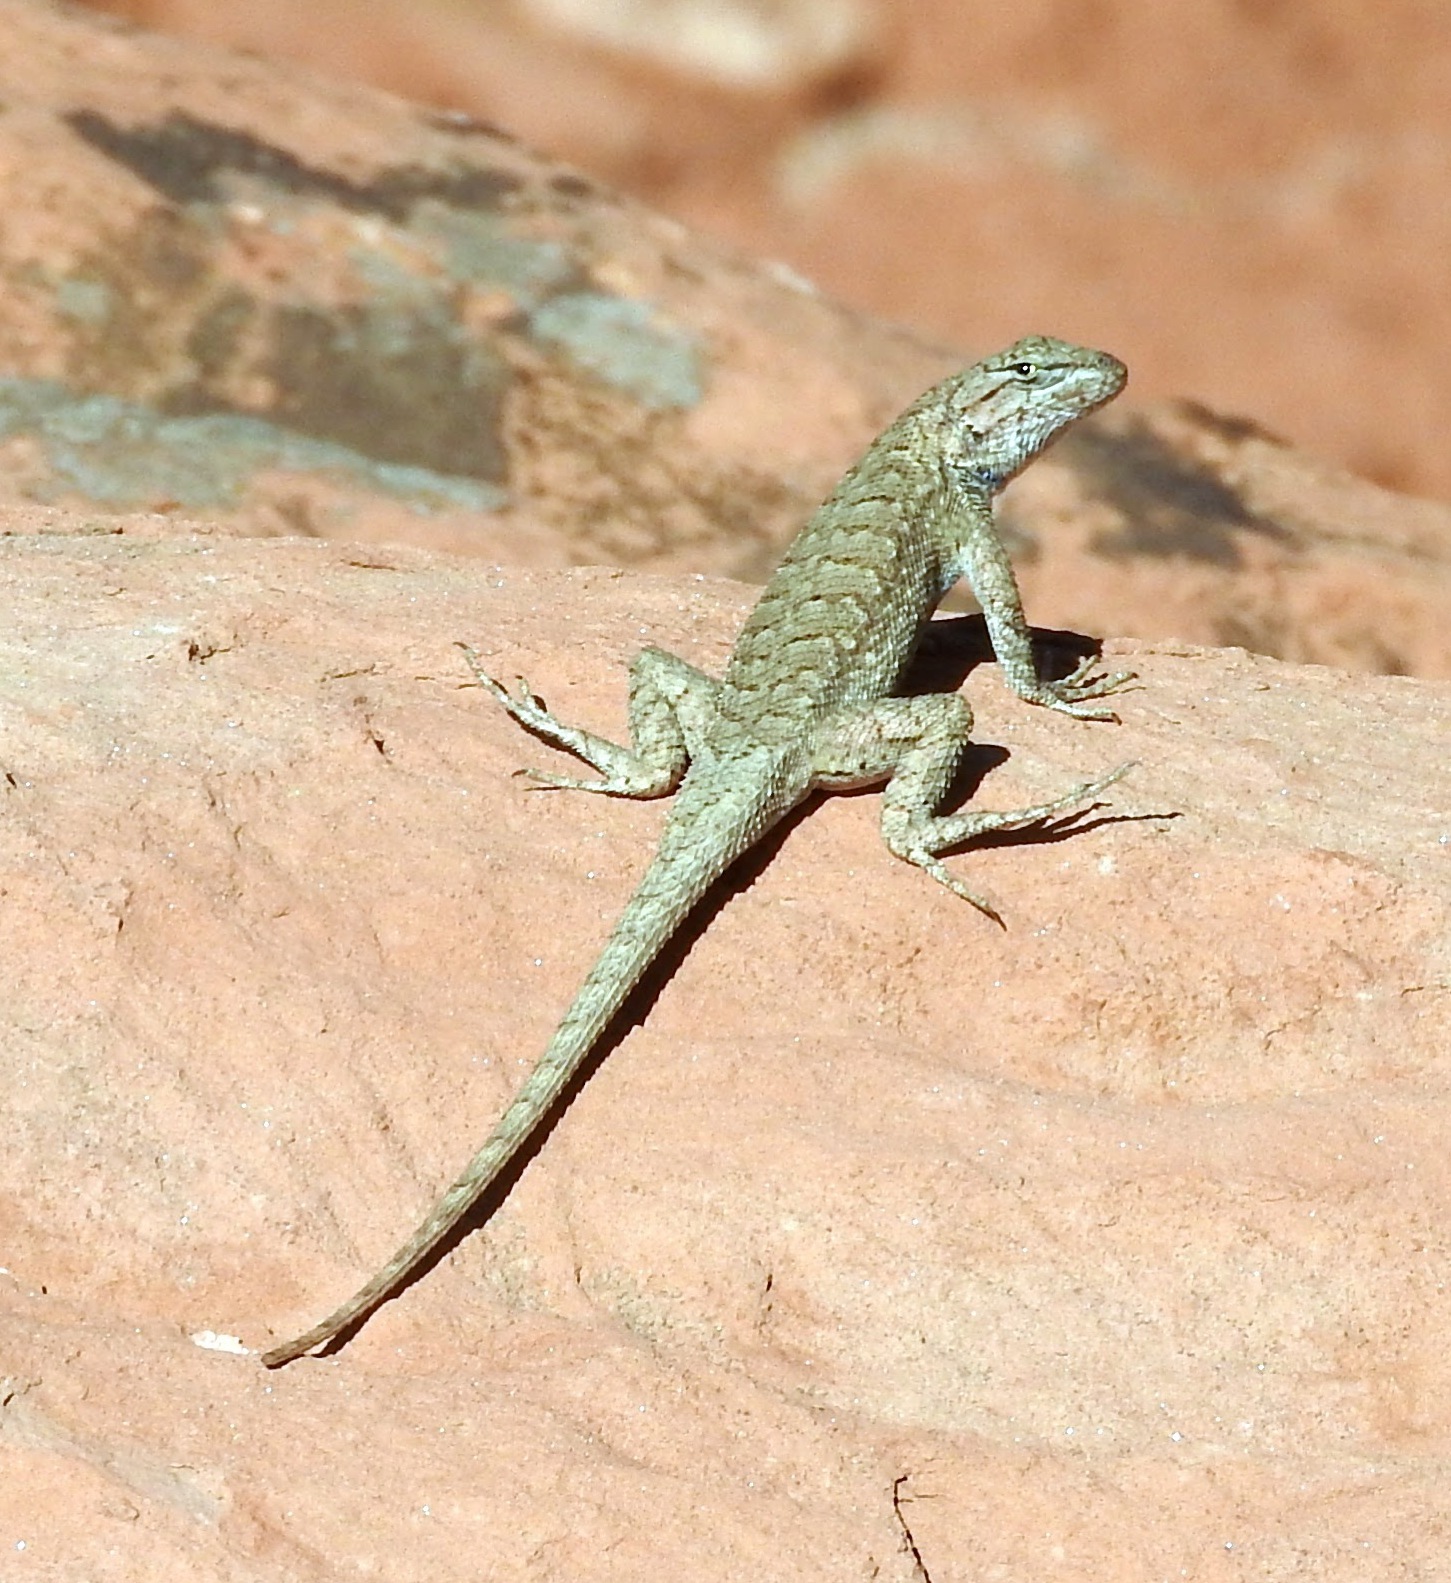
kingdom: Animalia
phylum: Chordata
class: Squamata
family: Phrynosomatidae
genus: Sceloporus
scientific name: Sceloporus tristichus
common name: Plateau fence lizard
